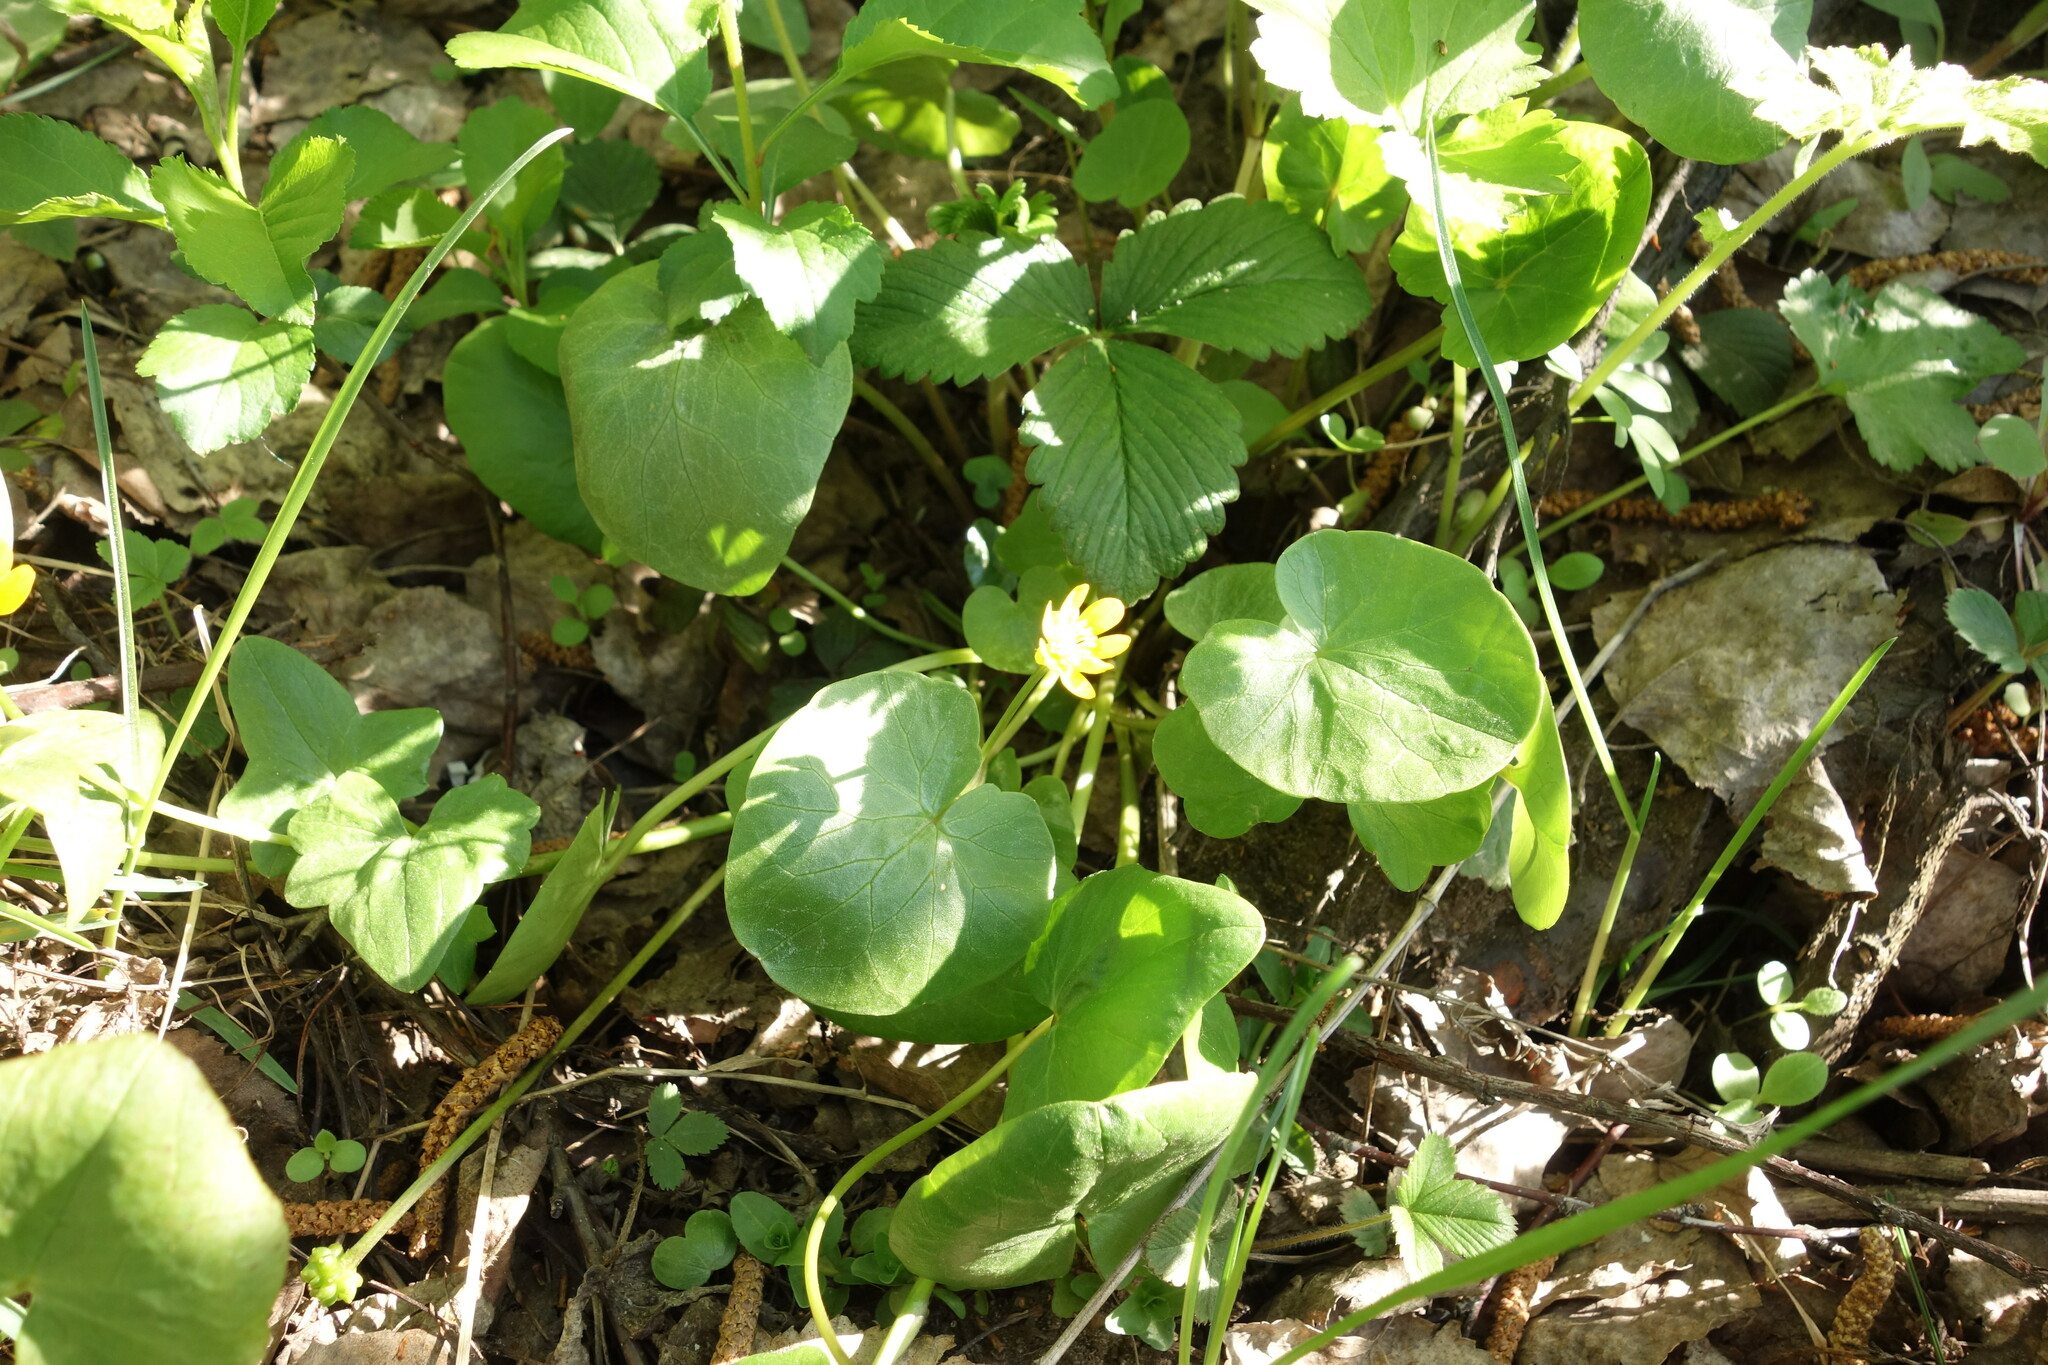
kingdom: Plantae
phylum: Tracheophyta
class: Magnoliopsida
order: Ranunculales
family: Ranunculaceae
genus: Ficaria
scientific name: Ficaria verna
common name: Lesser celandine
